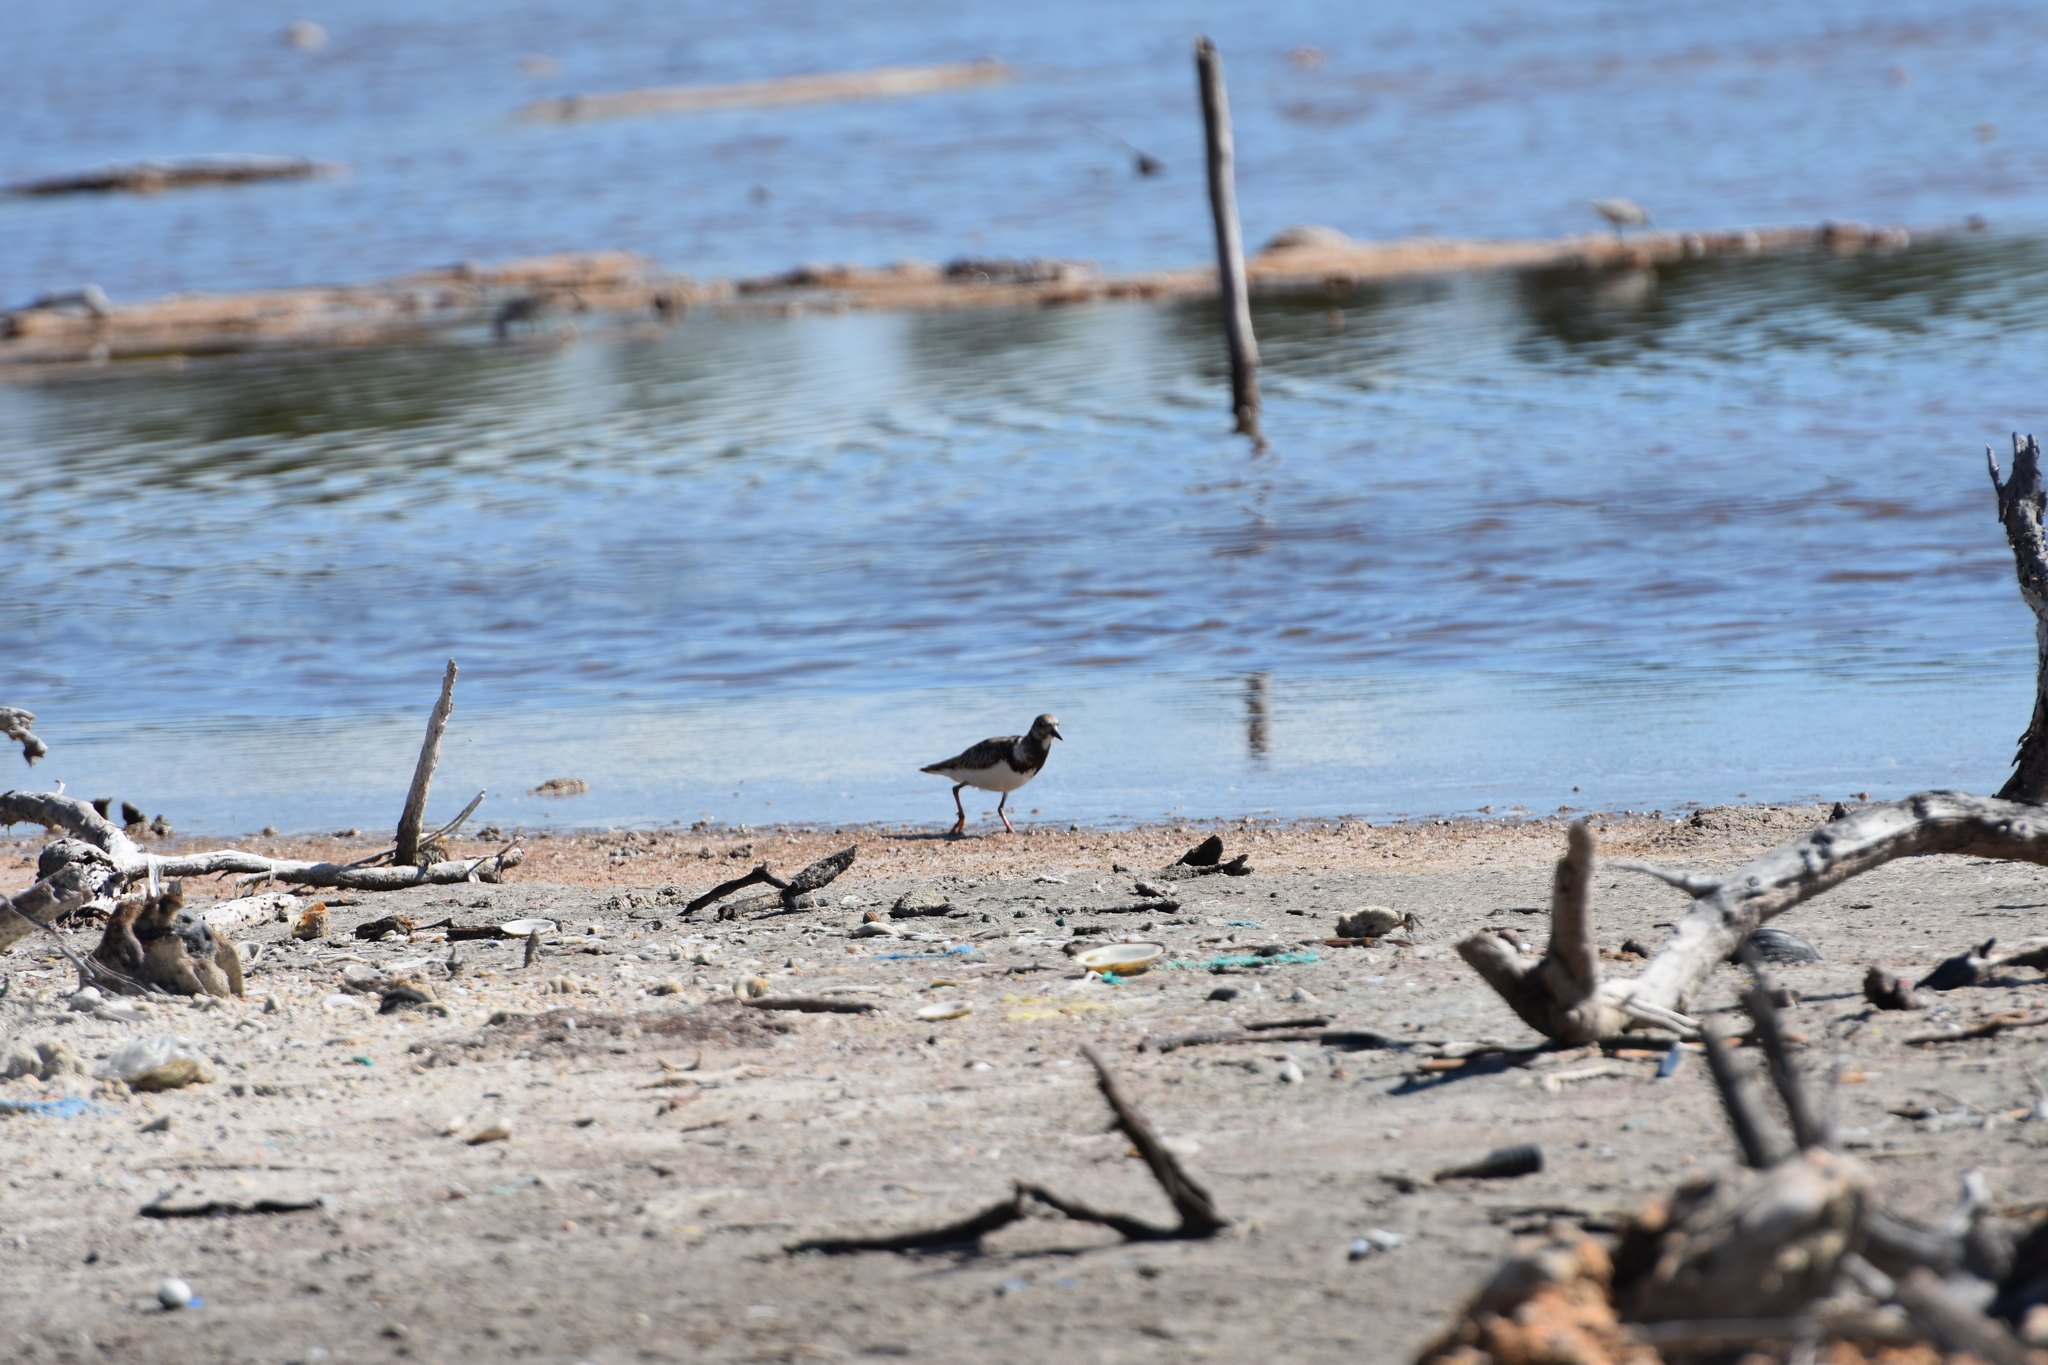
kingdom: Animalia
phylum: Chordata
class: Aves
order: Charadriiformes
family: Scolopacidae
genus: Arenaria
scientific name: Arenaria interpres
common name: Ruddy turnstone
